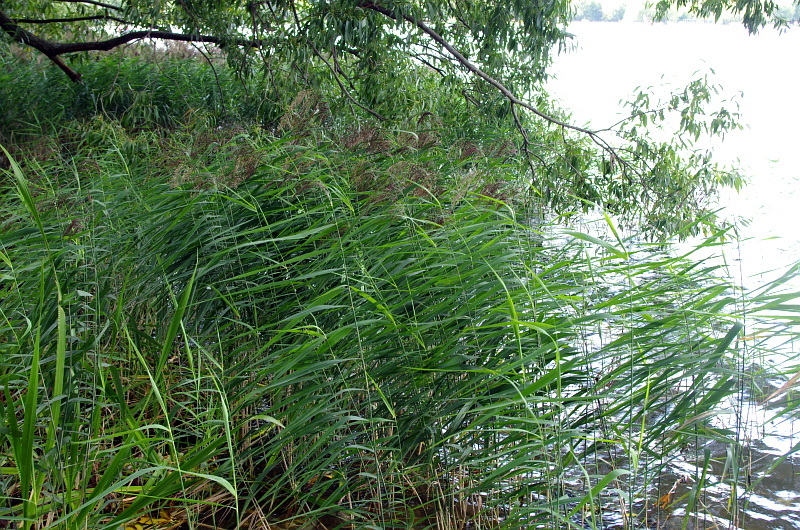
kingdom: Plantae
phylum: Tracheophyta
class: Liliopsida
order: Poales
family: Poaceae
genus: Phragmites
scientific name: Phragmites australis
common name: Common reed
